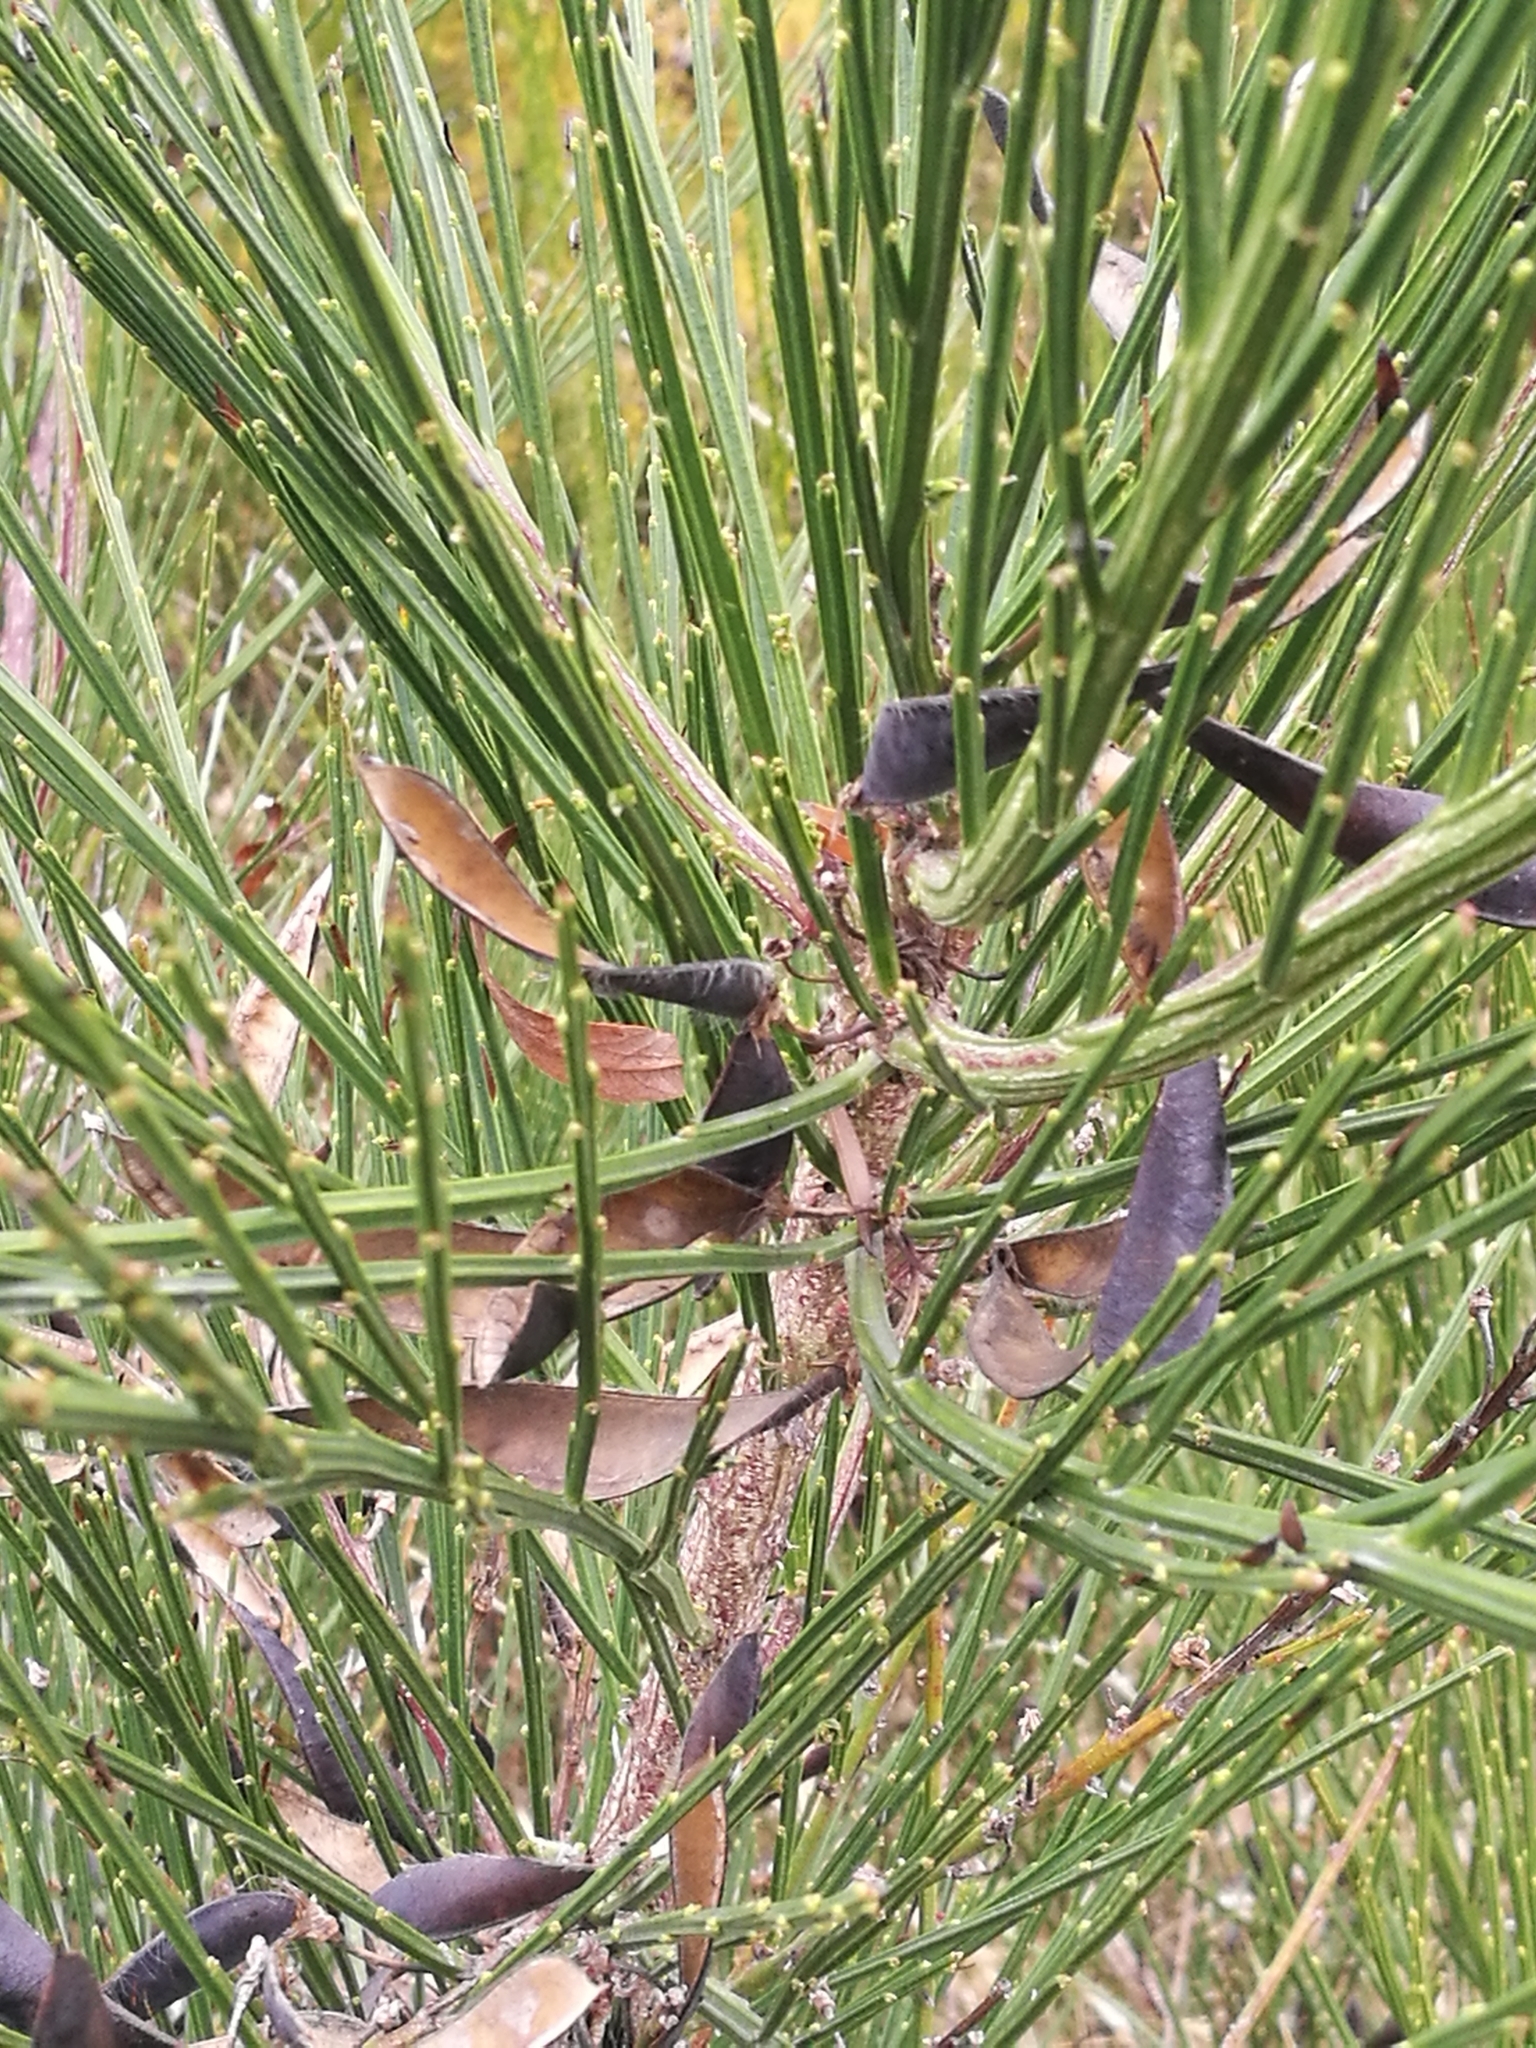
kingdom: Plantae
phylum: Tracheophyta
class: Magnoliopsida
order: Fabales
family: Fabaceae
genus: Cytisus
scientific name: Cytisus scoparius
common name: Scotch broom
